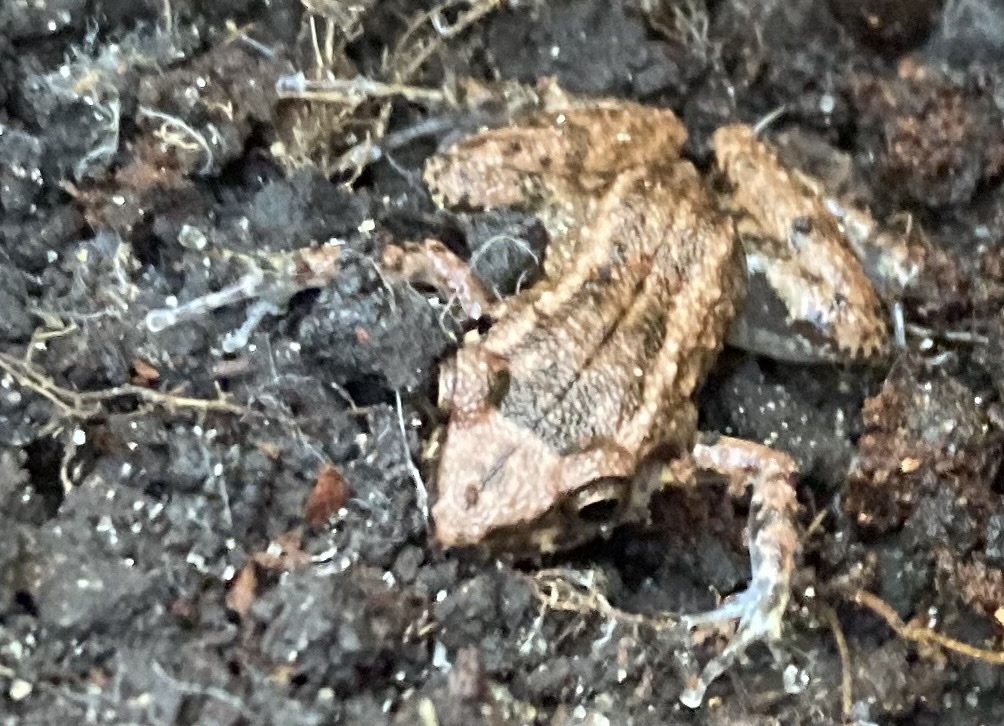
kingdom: Animalia
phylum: Chordata
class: Amphibia
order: Anura
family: Eleutherodactylidae
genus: Eleutherodactylus
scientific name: Eleutherodactylus planirostris
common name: Greenhouse frog
